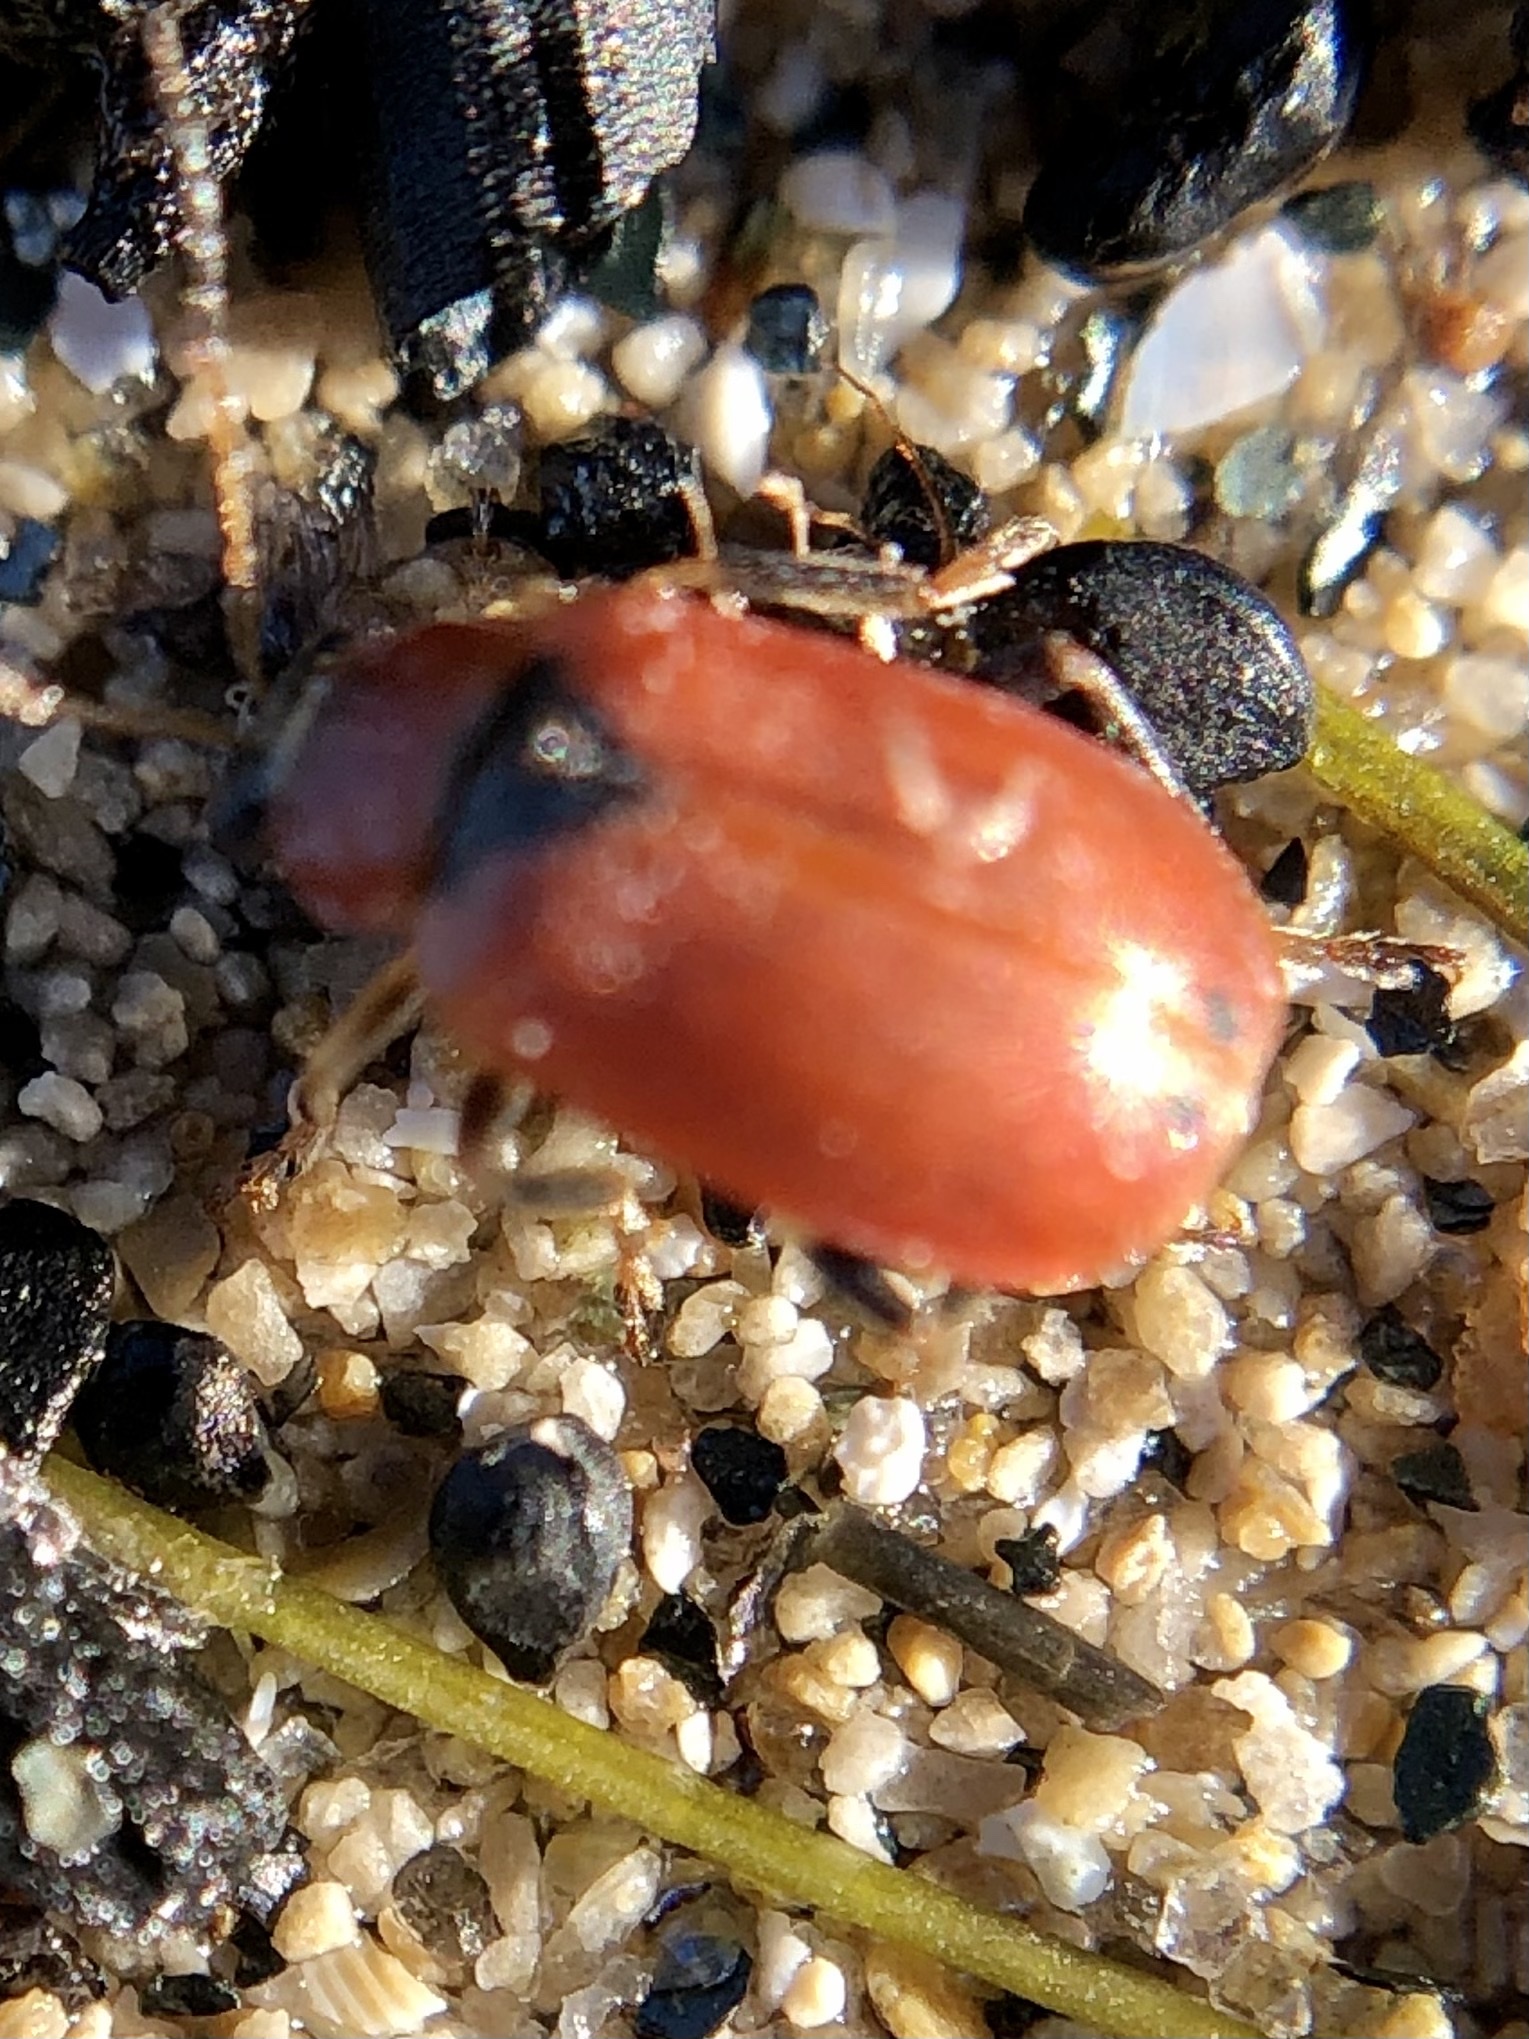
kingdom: Animalia
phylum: Arthropoda
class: Insecta
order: Coleoptera
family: Chrysomelidae
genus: Cerotoma
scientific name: Cerotoma trifurcata
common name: Bean leaf beetle
